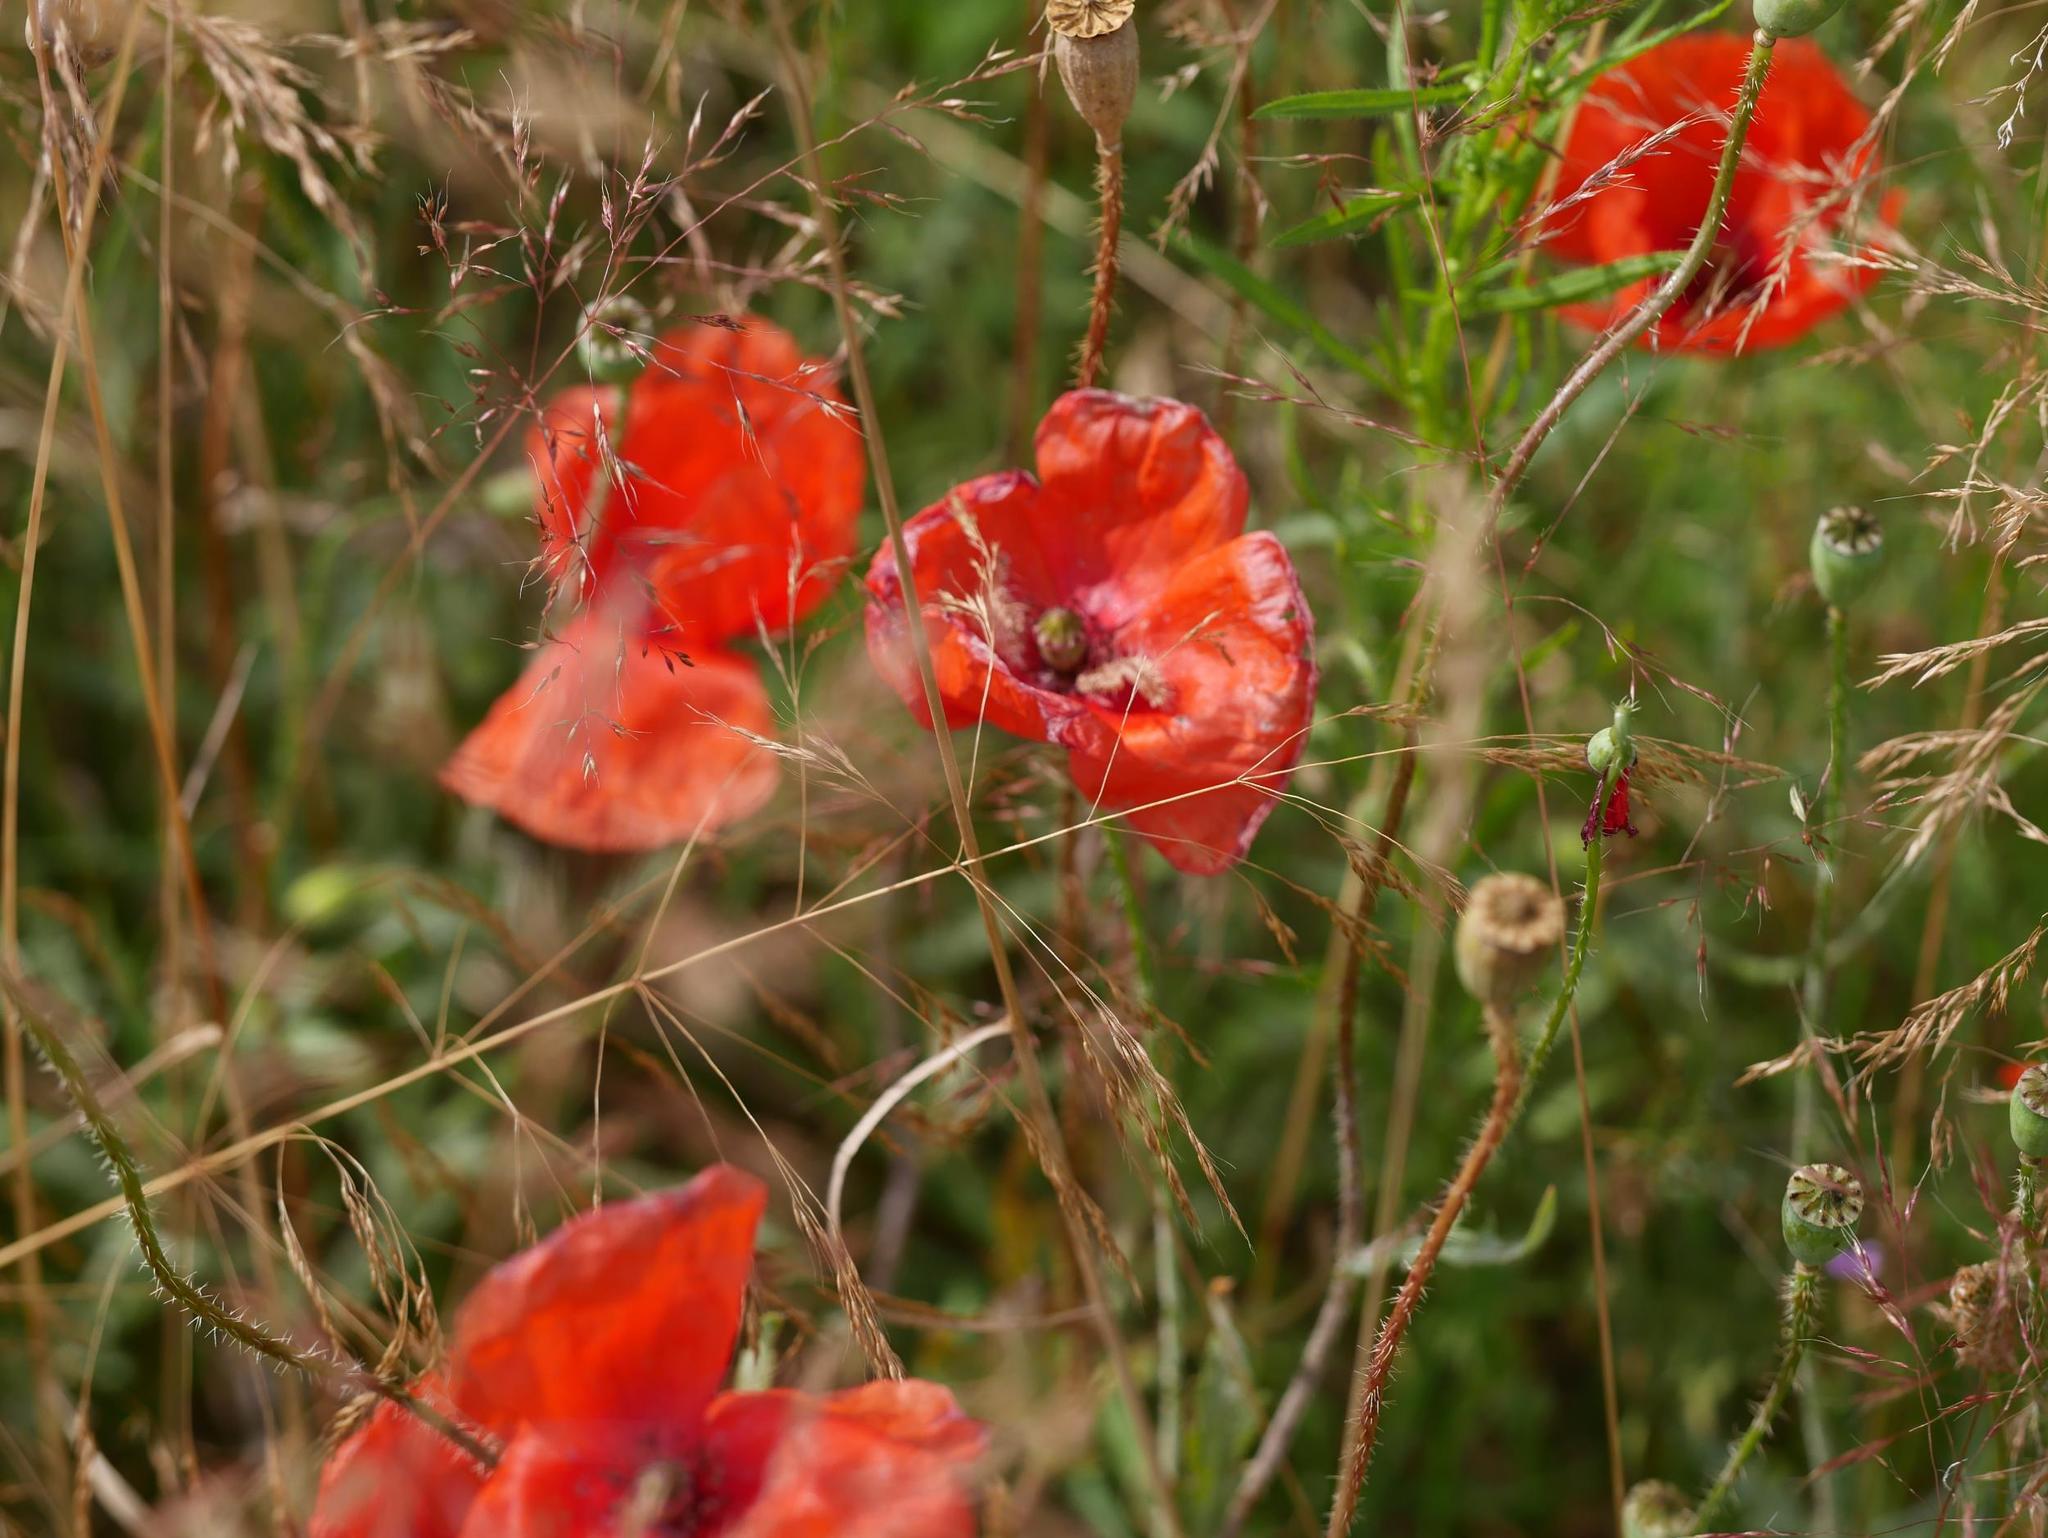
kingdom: Plantae
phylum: Tracheophyta
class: Magnoliopsida
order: Ranunculales
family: Papaveraceae
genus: Papaver
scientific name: Papaver rhoeas
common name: Corn poppy
